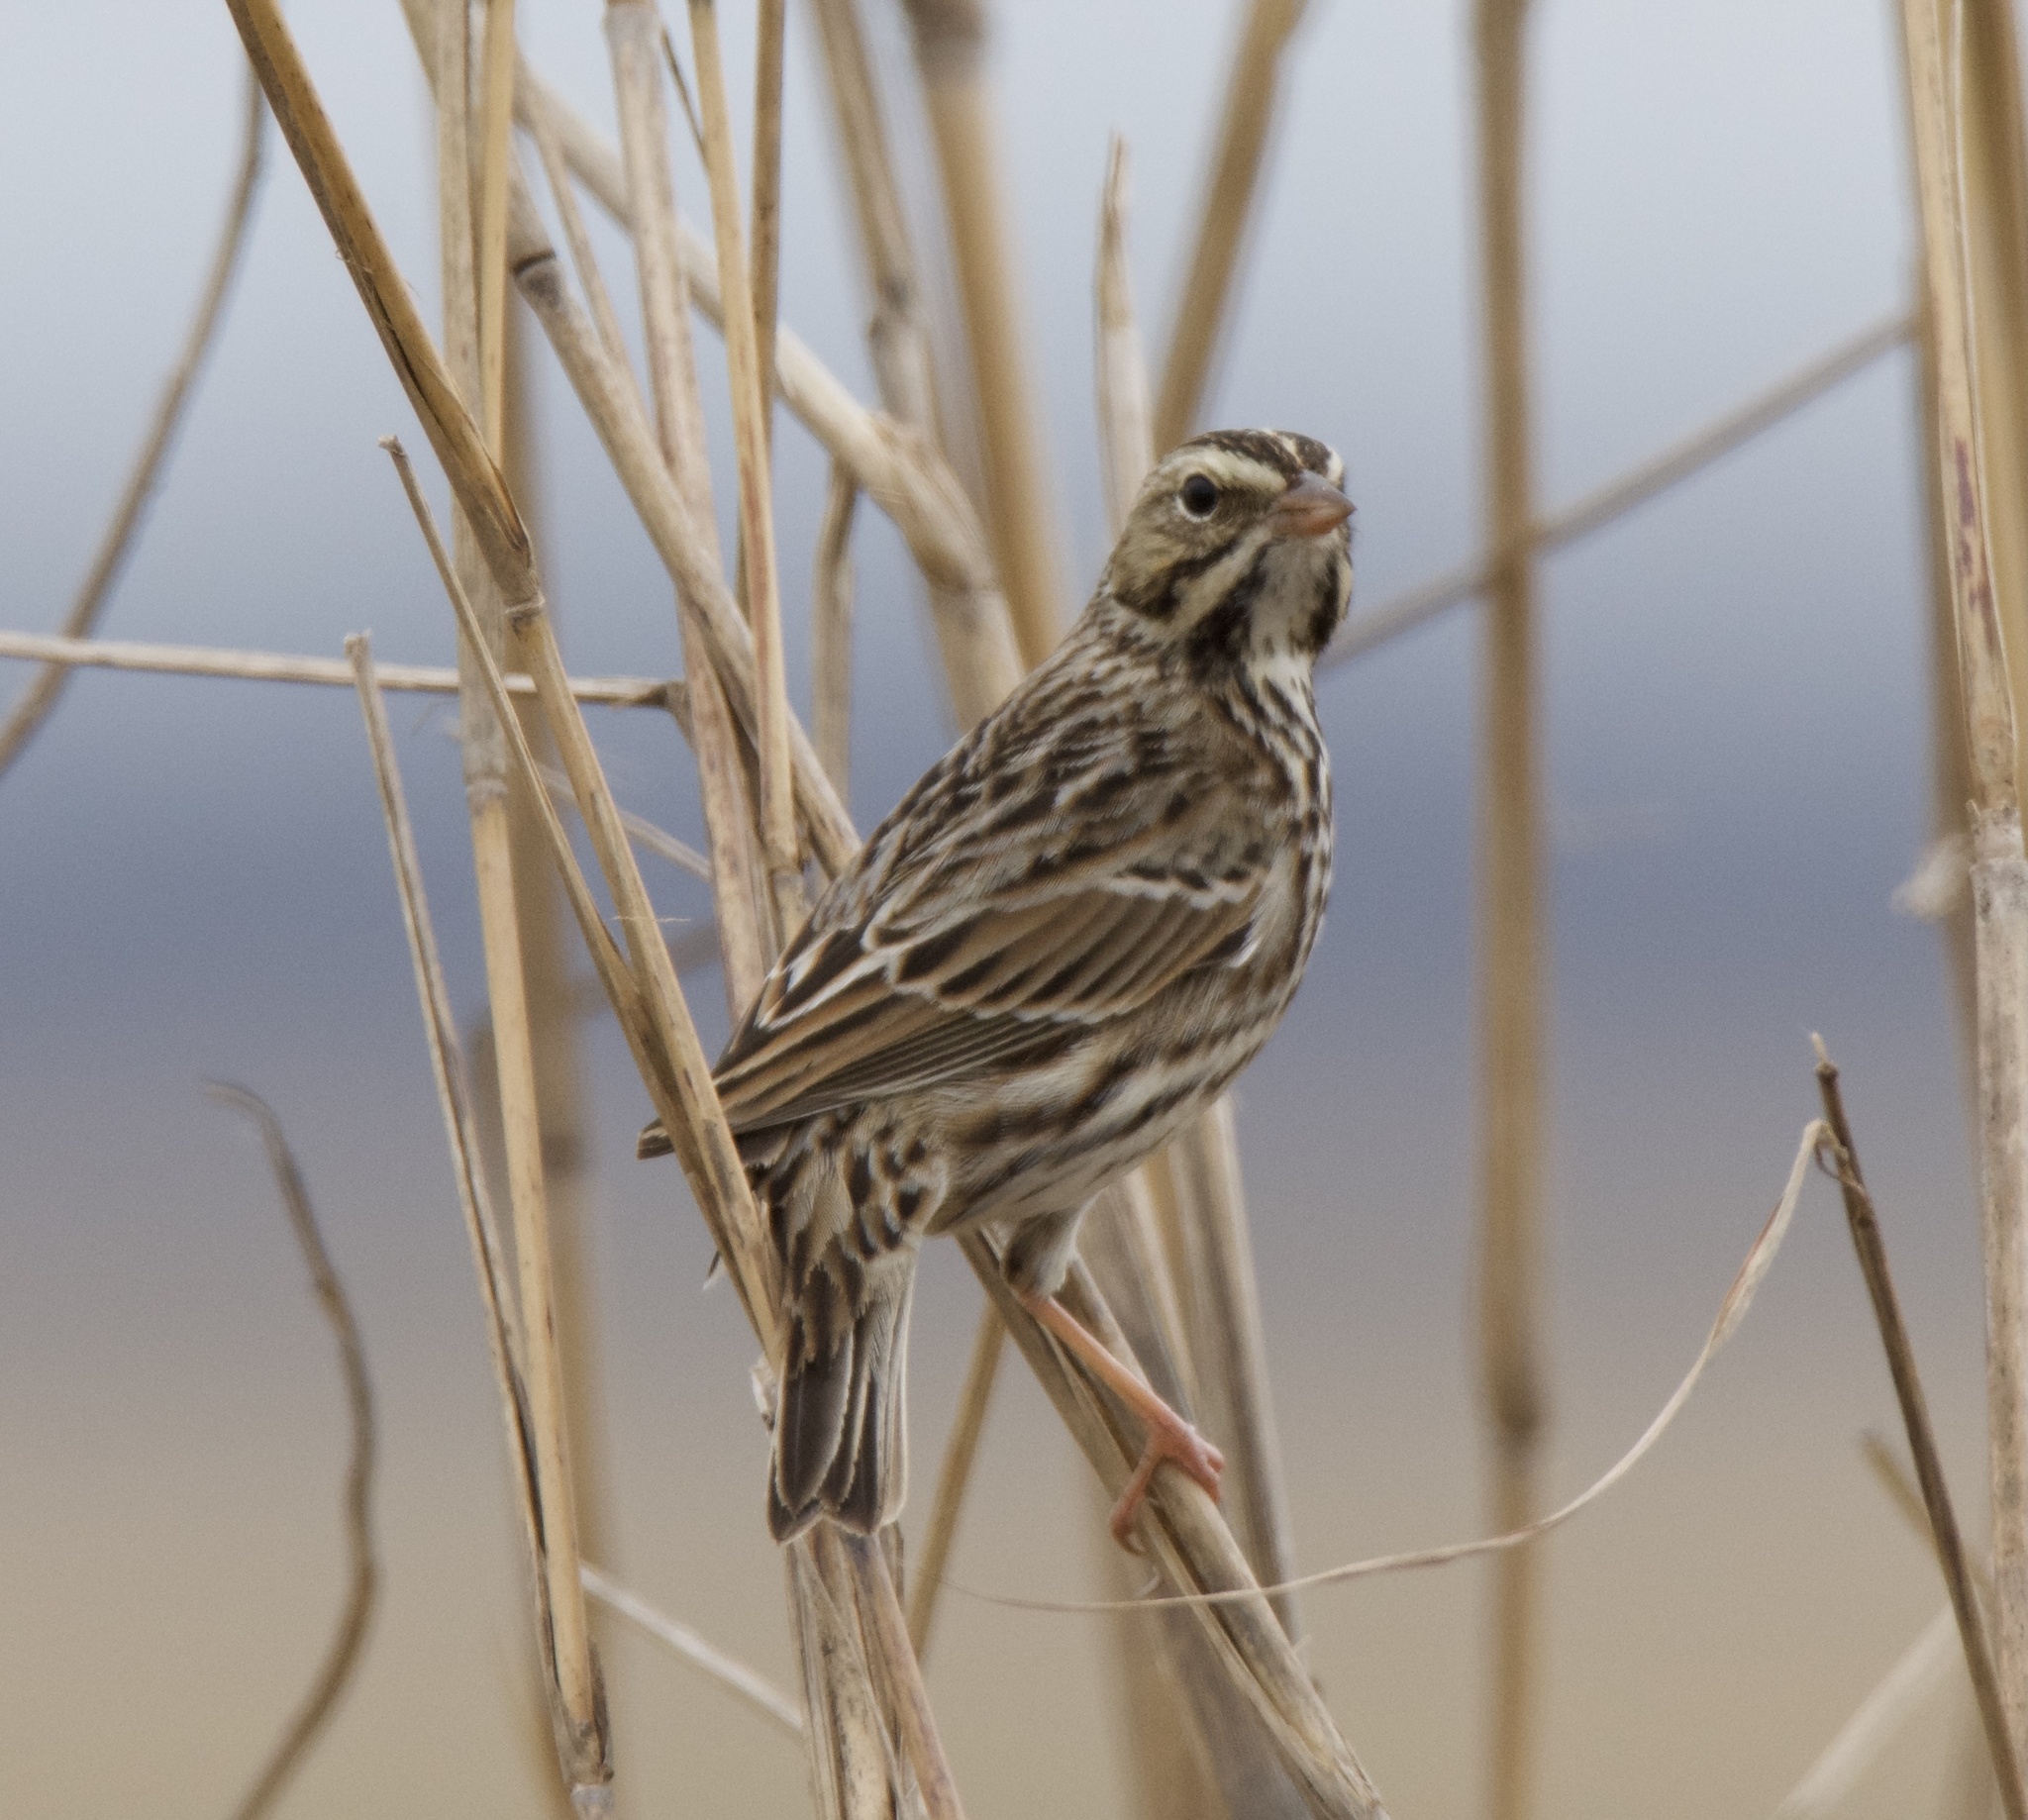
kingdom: Animalia
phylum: Chordata
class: Aves
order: Passeriformes
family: Passerellidae
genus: Passerculus
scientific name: Passerculus sandwichensis
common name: Savannah sparrow
